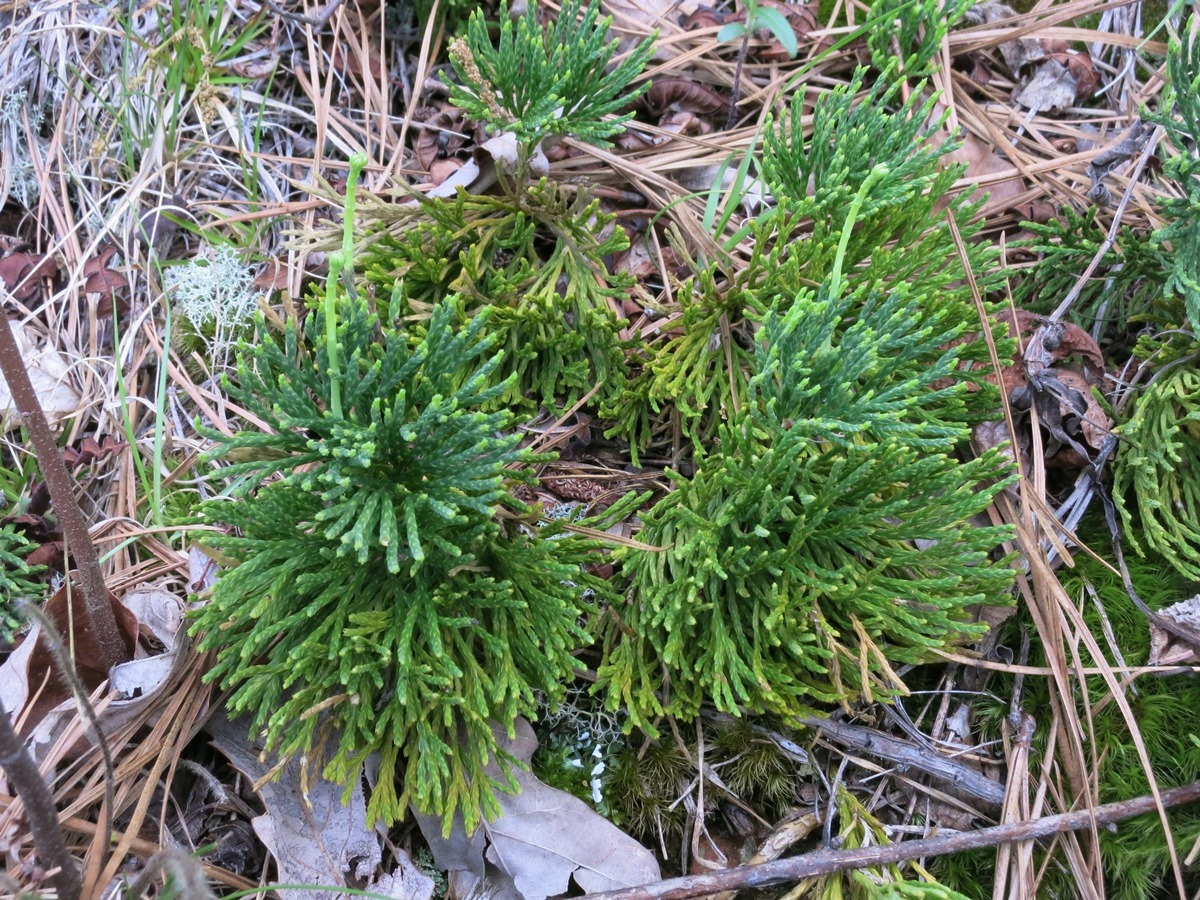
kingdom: Plantae
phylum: Tracheophyta
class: Lycopodiopsida
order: Lycopodiales
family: Lycopodiaceae
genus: Diphasiastrum
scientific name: Diphasiastrum tristachyum
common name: Blue ground-cedar
